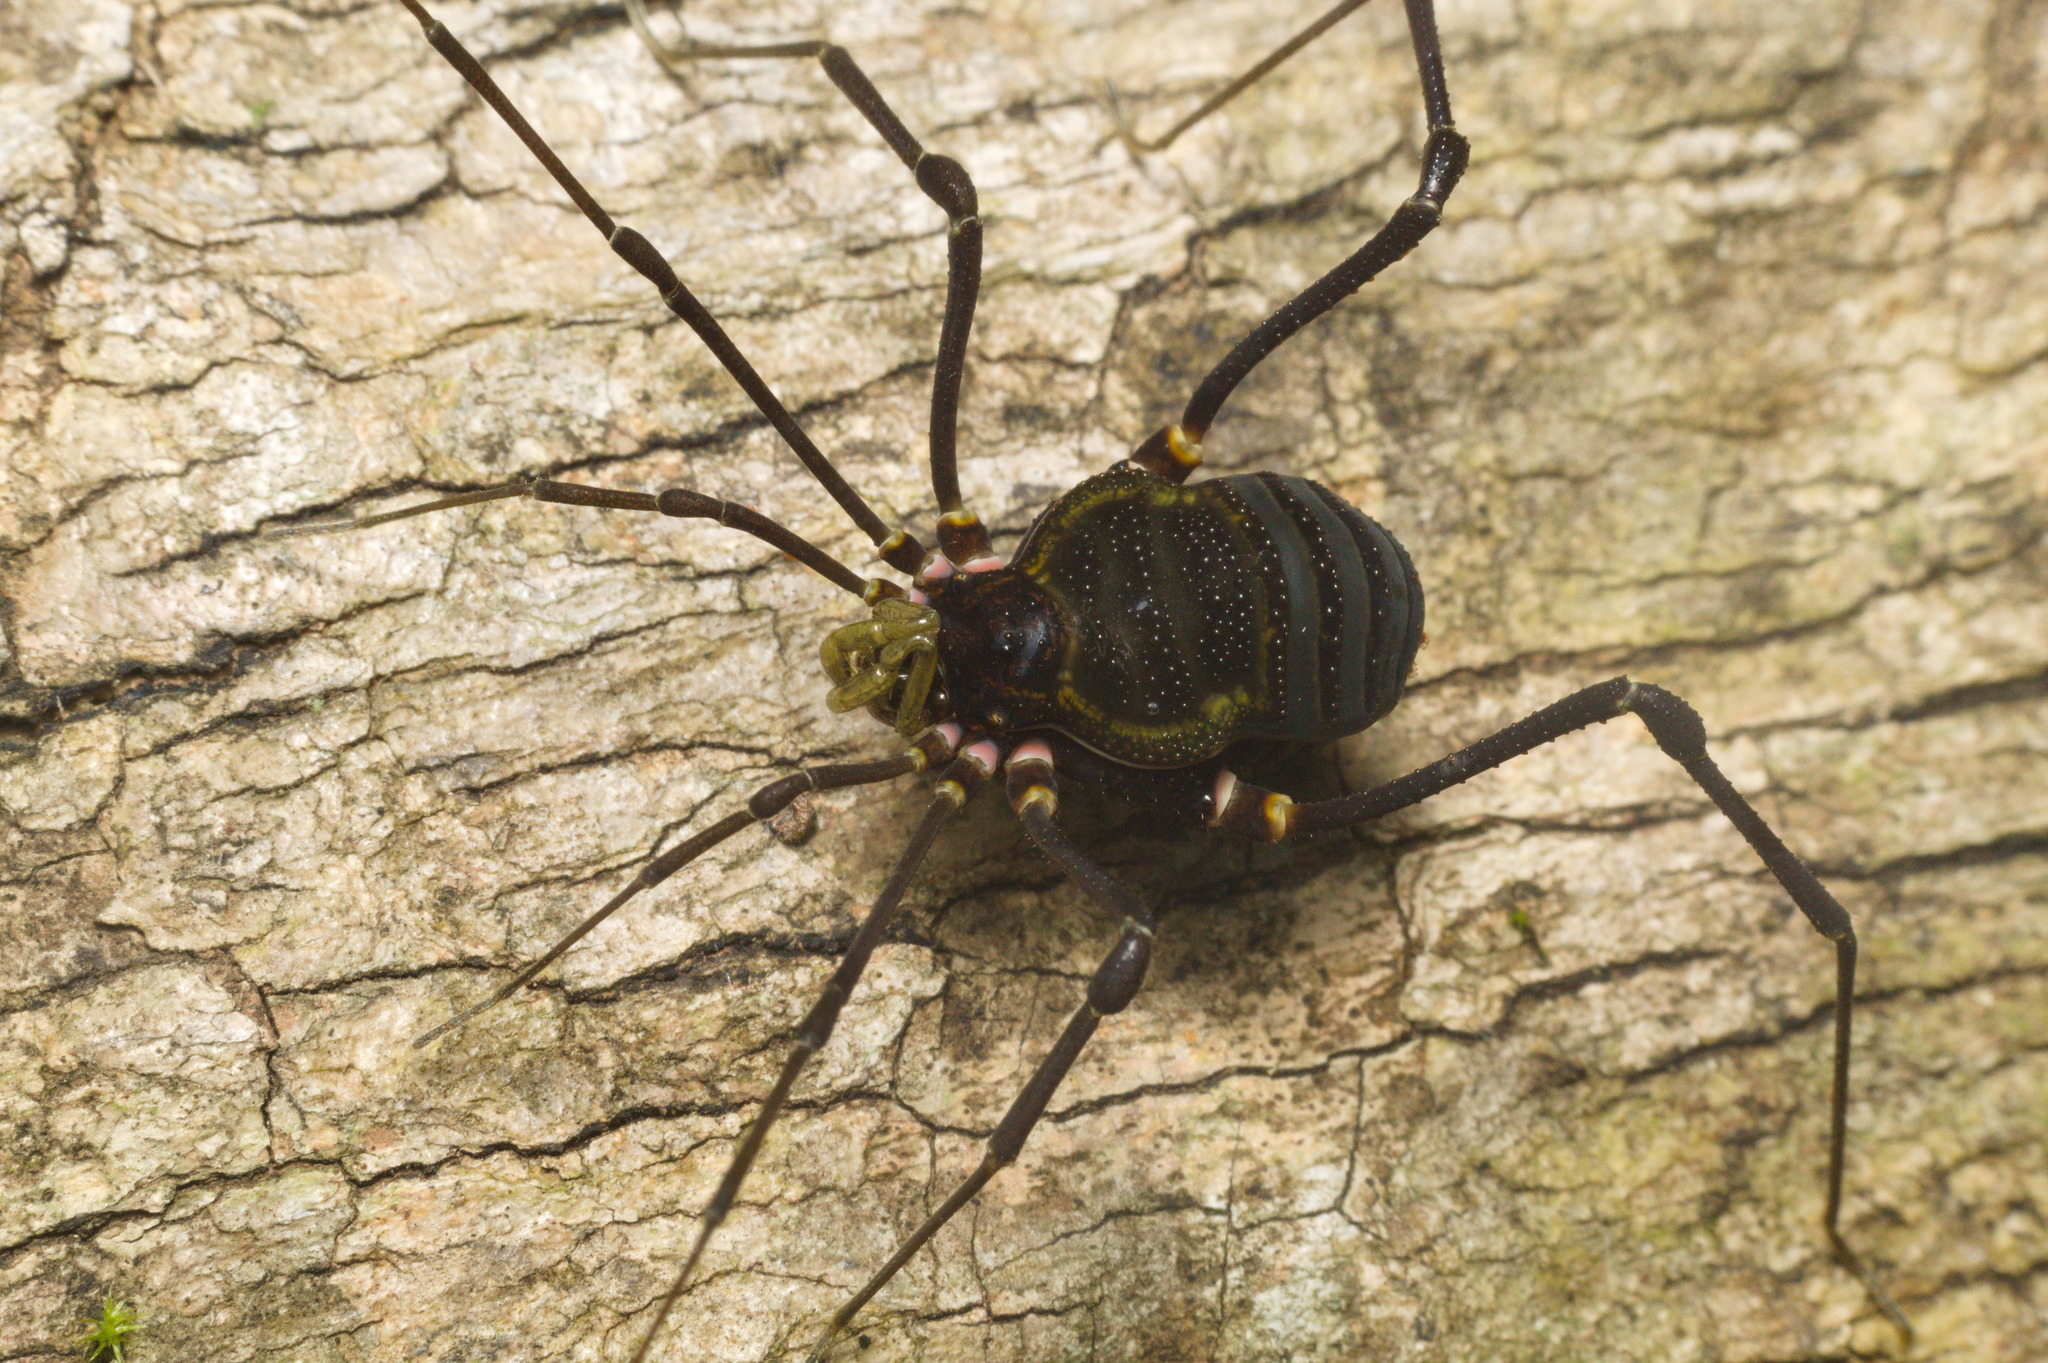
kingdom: Animalia
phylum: Arthropoda
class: Arachnida
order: Opiliones
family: Gonyleptidae
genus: Geraeocormobius
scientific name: Geraeocormobius sylvarum
